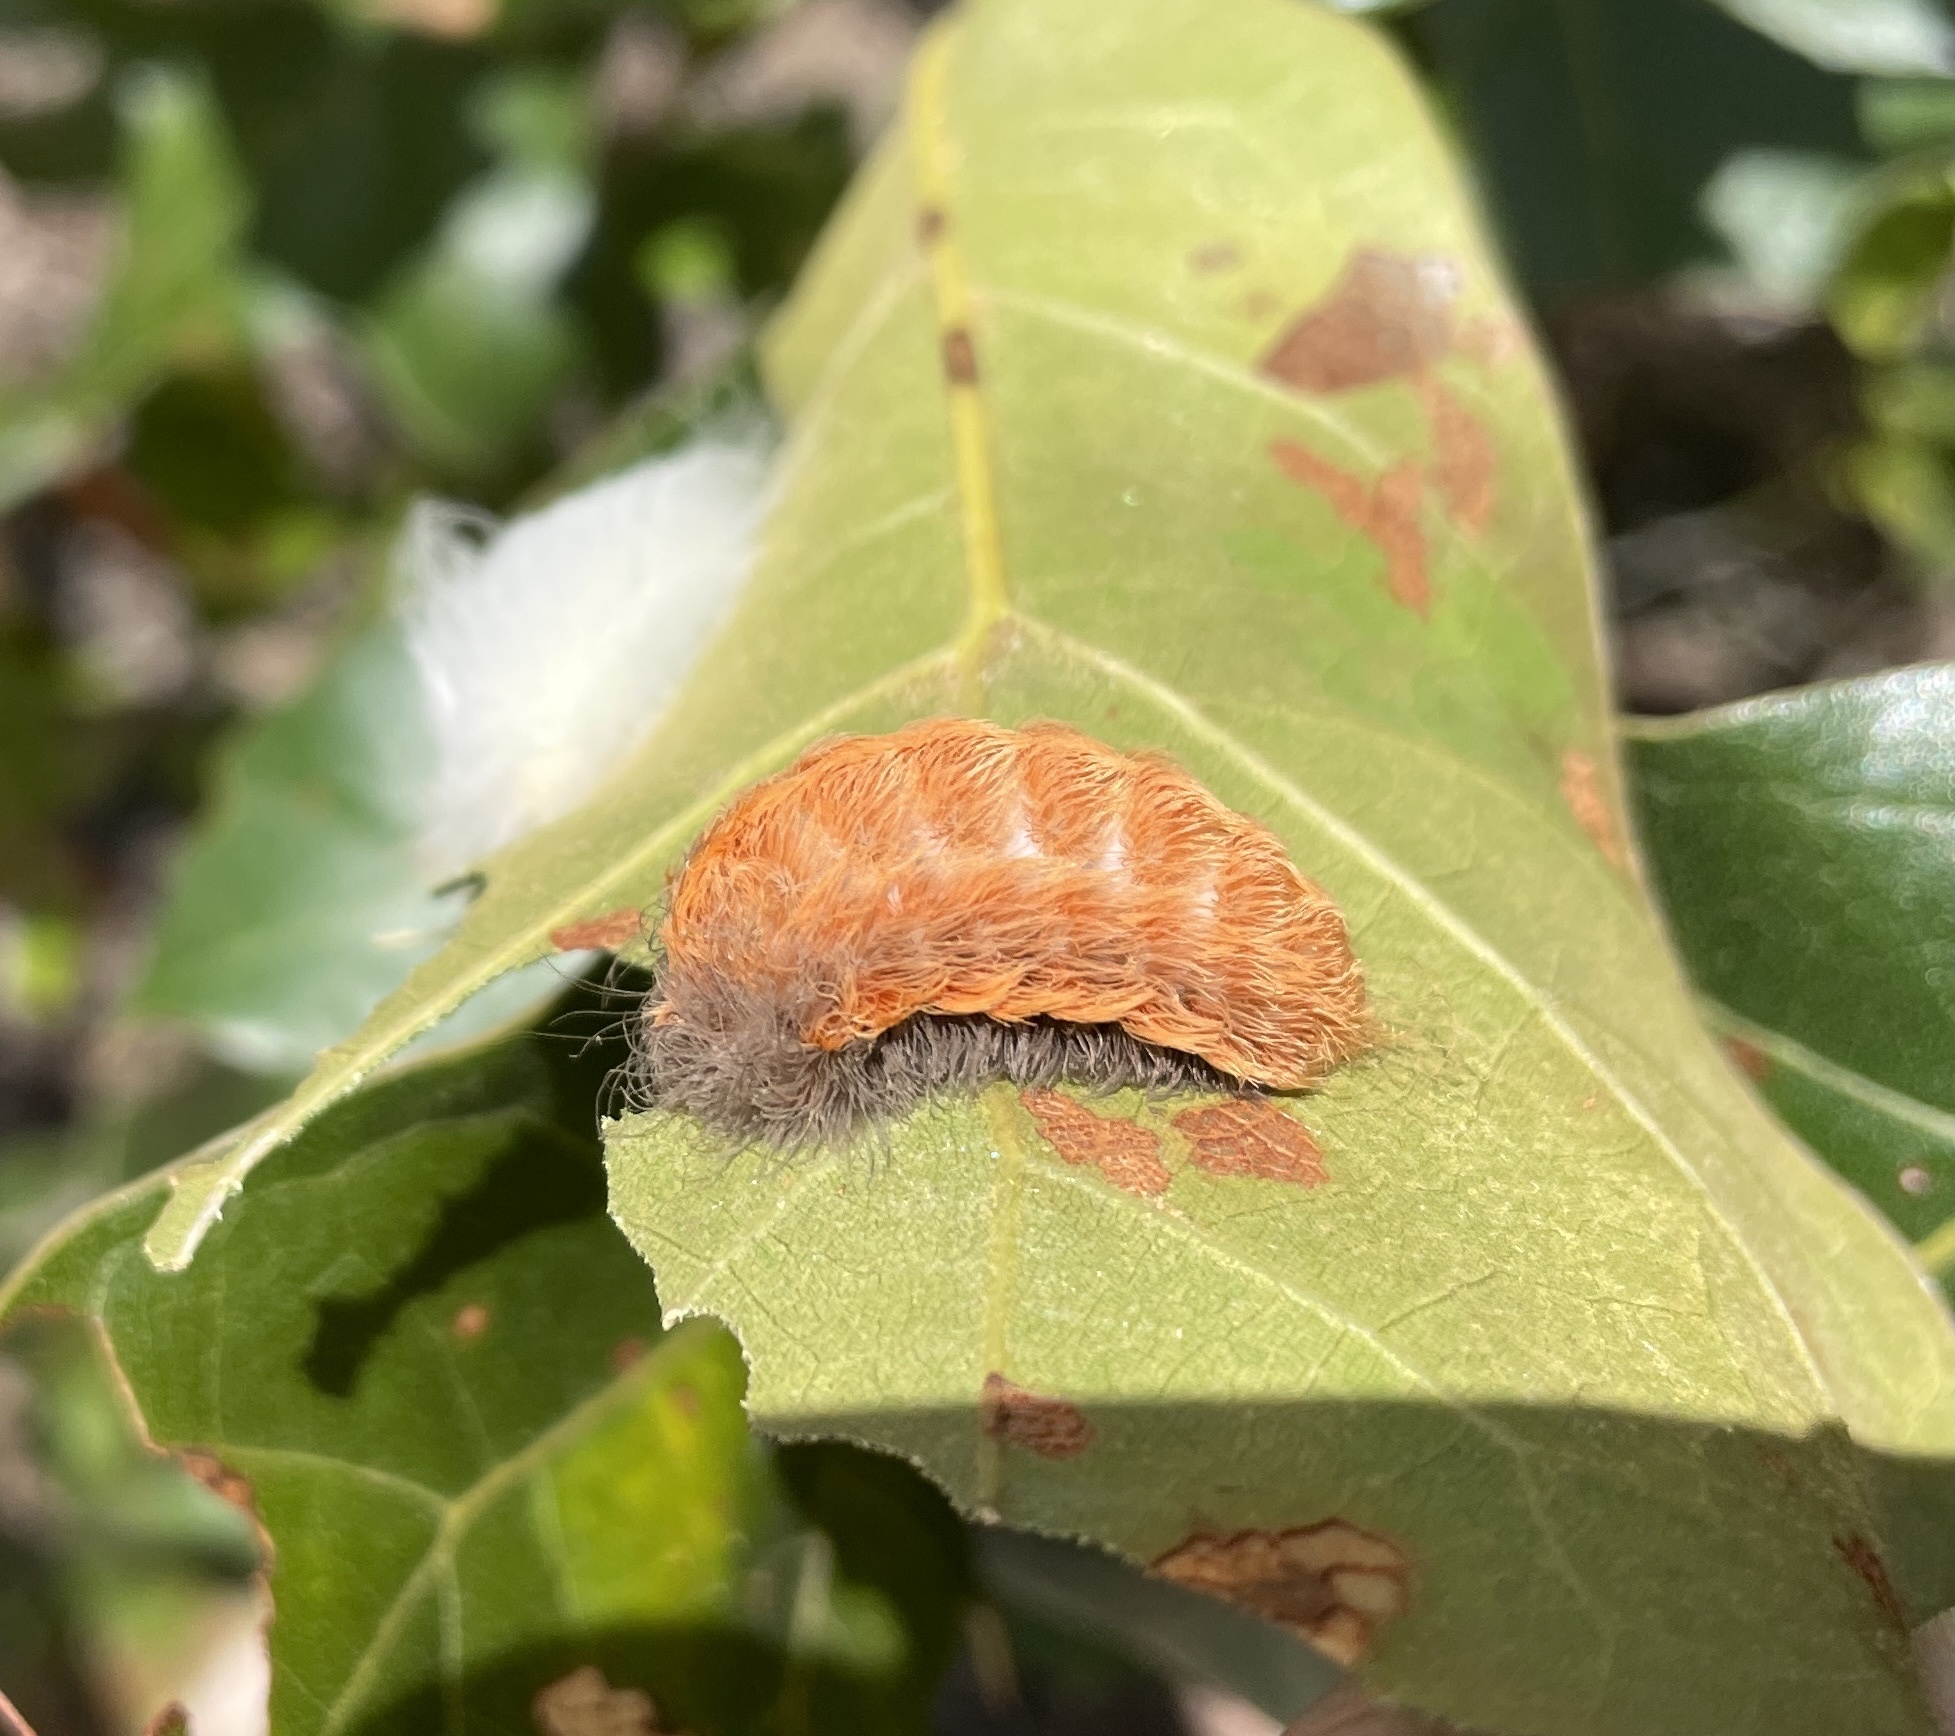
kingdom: Animalia
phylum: Arthropoda
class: Insecta
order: Lepidoptera
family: Megalopygidae
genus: Megalopyge
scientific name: Megalopyge crispata
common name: Black-waved flannel moth
